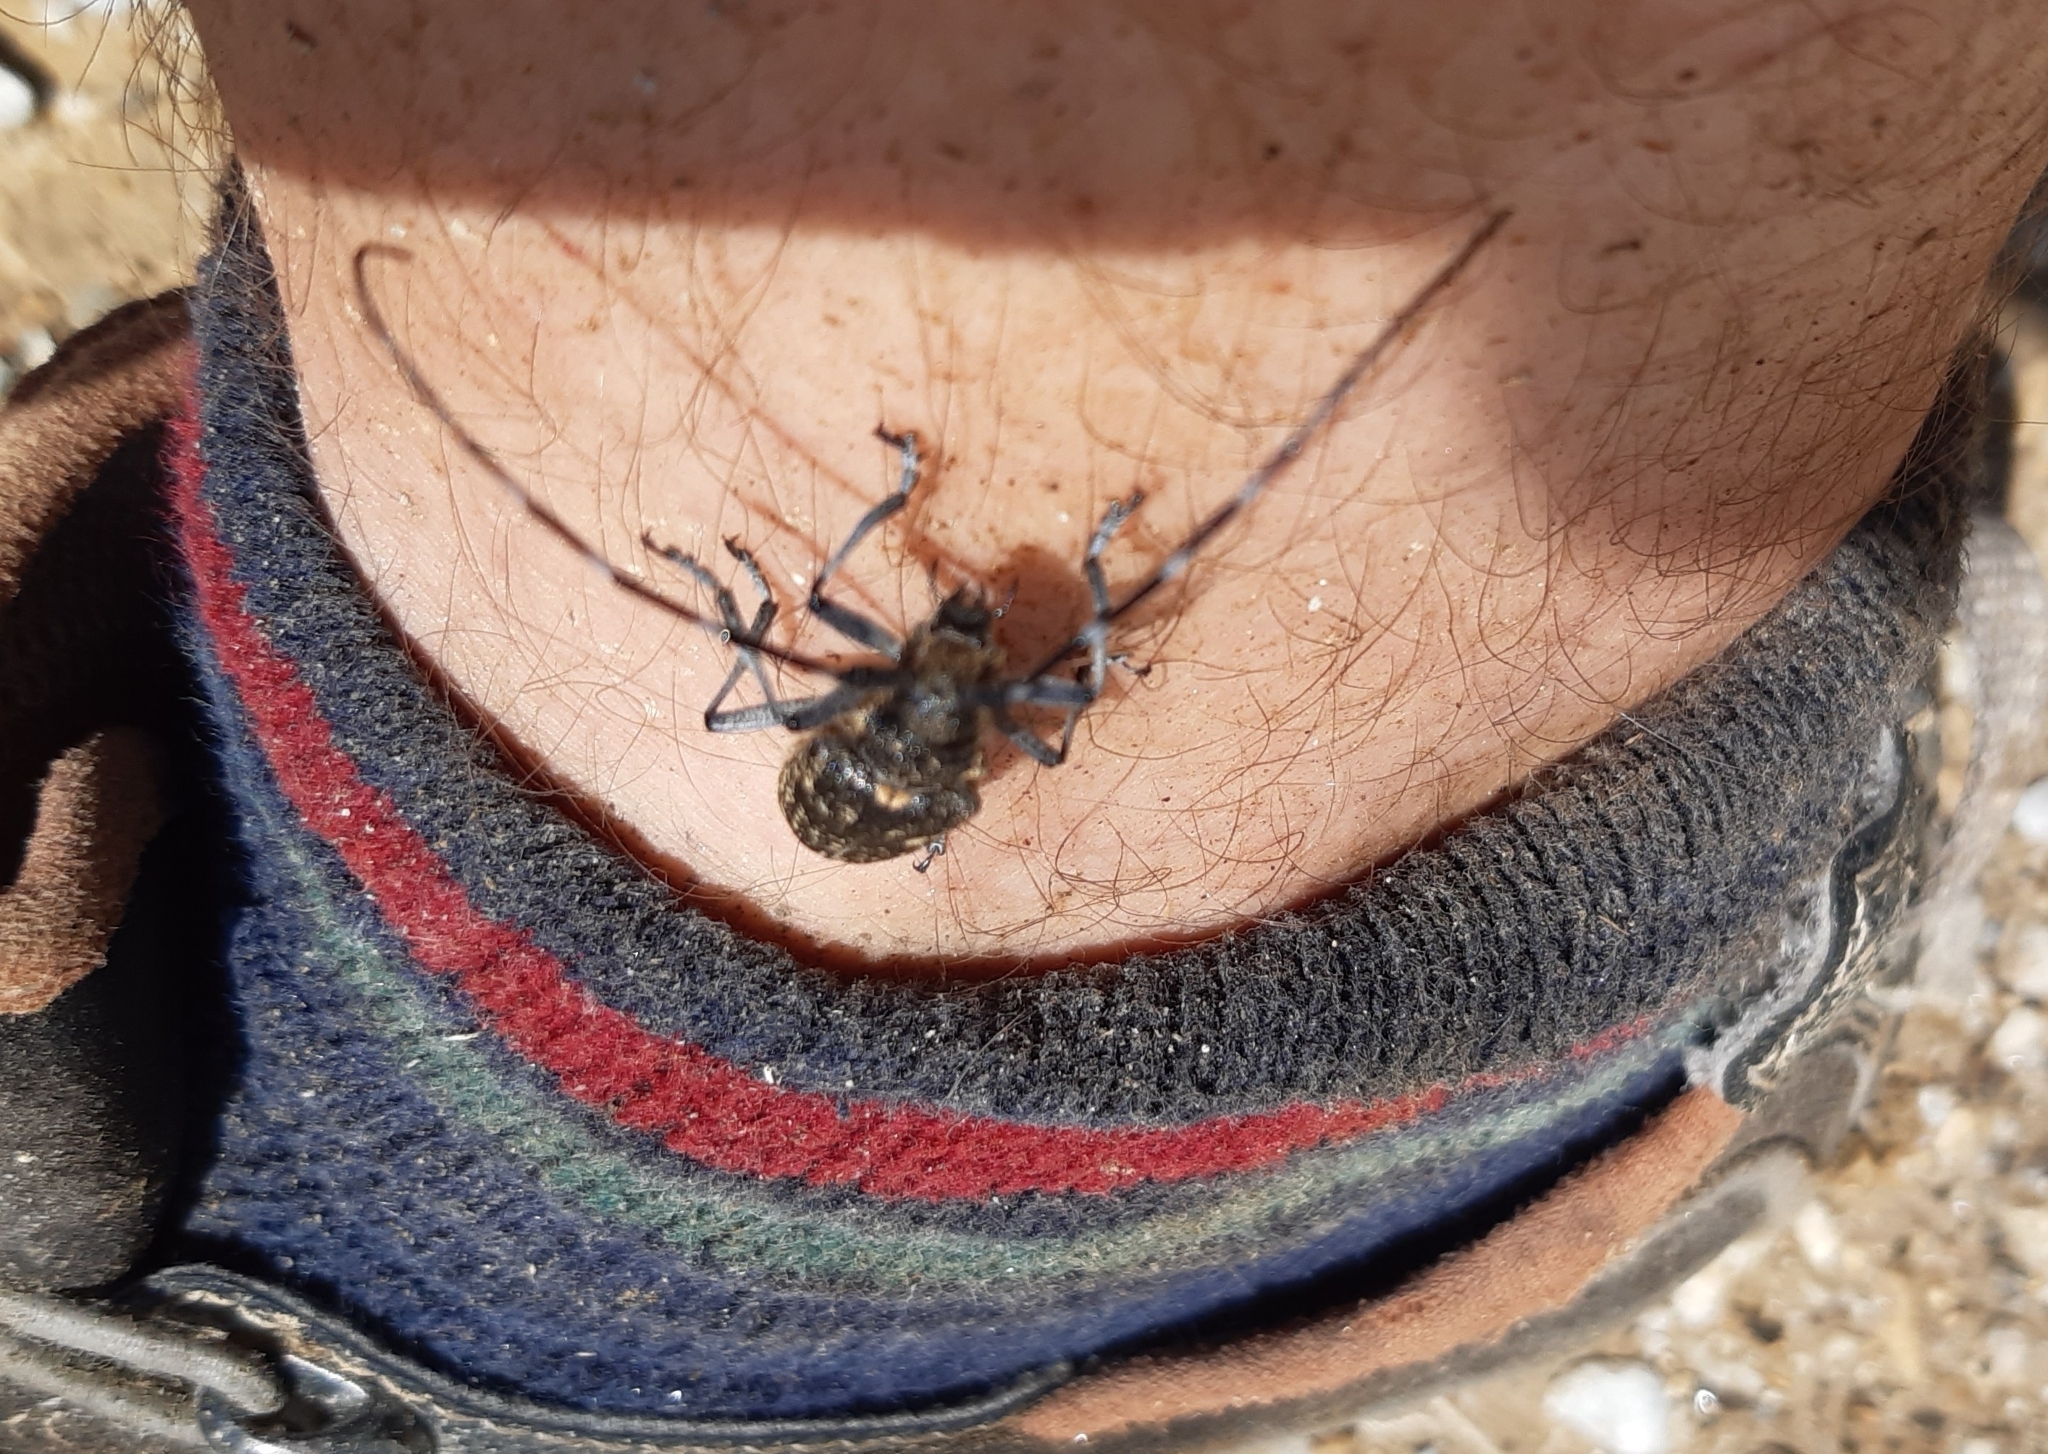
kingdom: Animalia
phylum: Arthropoda
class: Insecta
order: Coleoptera
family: Cerambycidae
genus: Monochamus
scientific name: Monochamus sutor
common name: Pine sawyer
